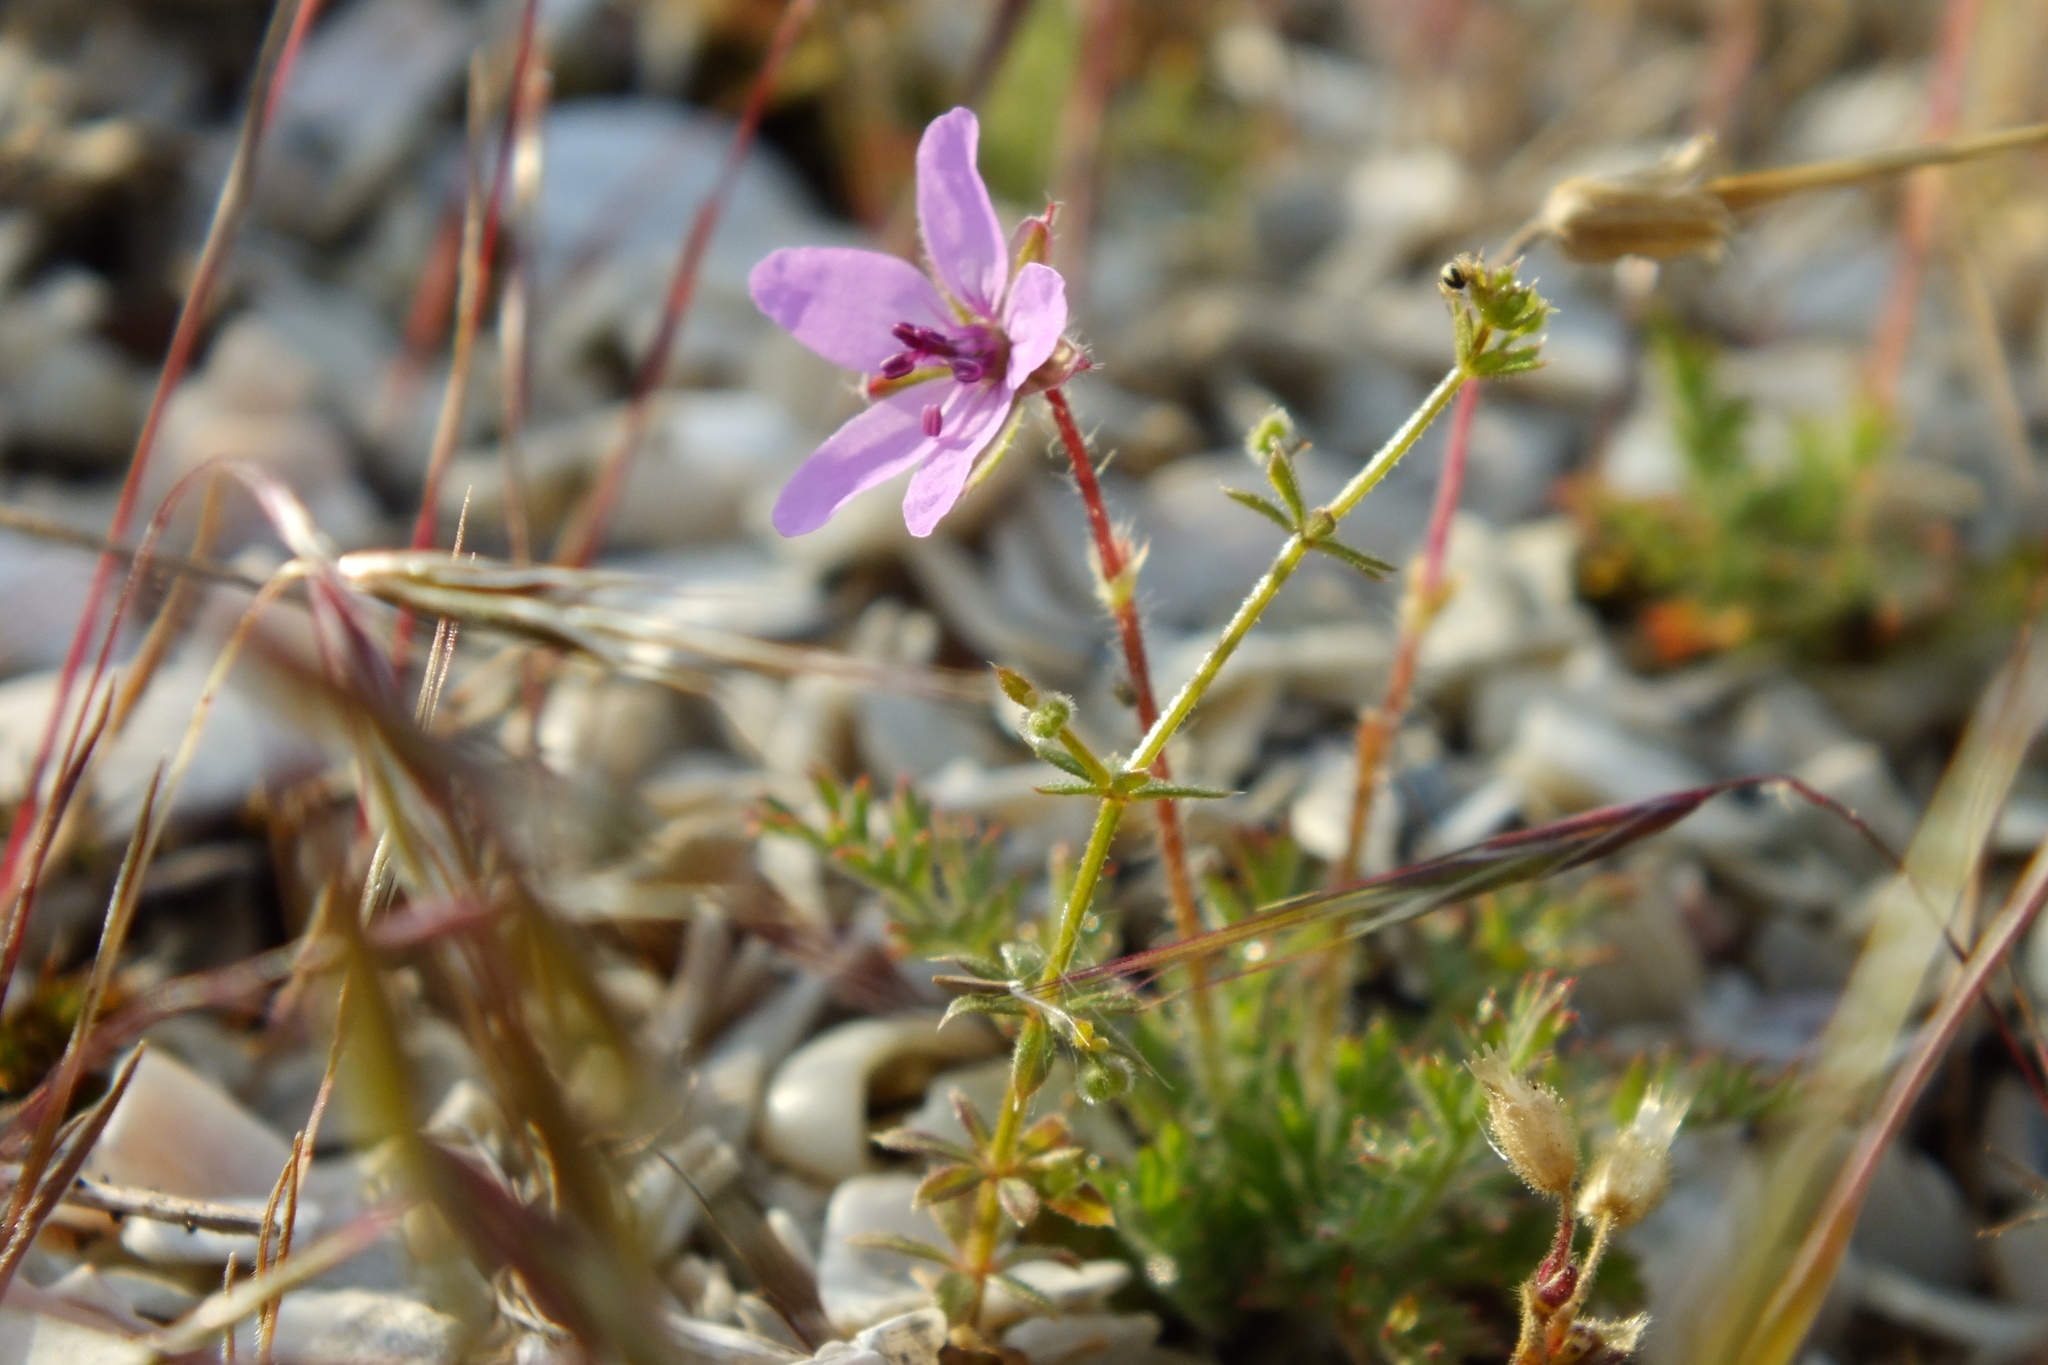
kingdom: Plantae
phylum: Tracheophyta
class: Magnoliopsida
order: Geraniales
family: Geraniaceae
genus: Erodium
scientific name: Erodium cicutarium
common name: Common stork's-bill
